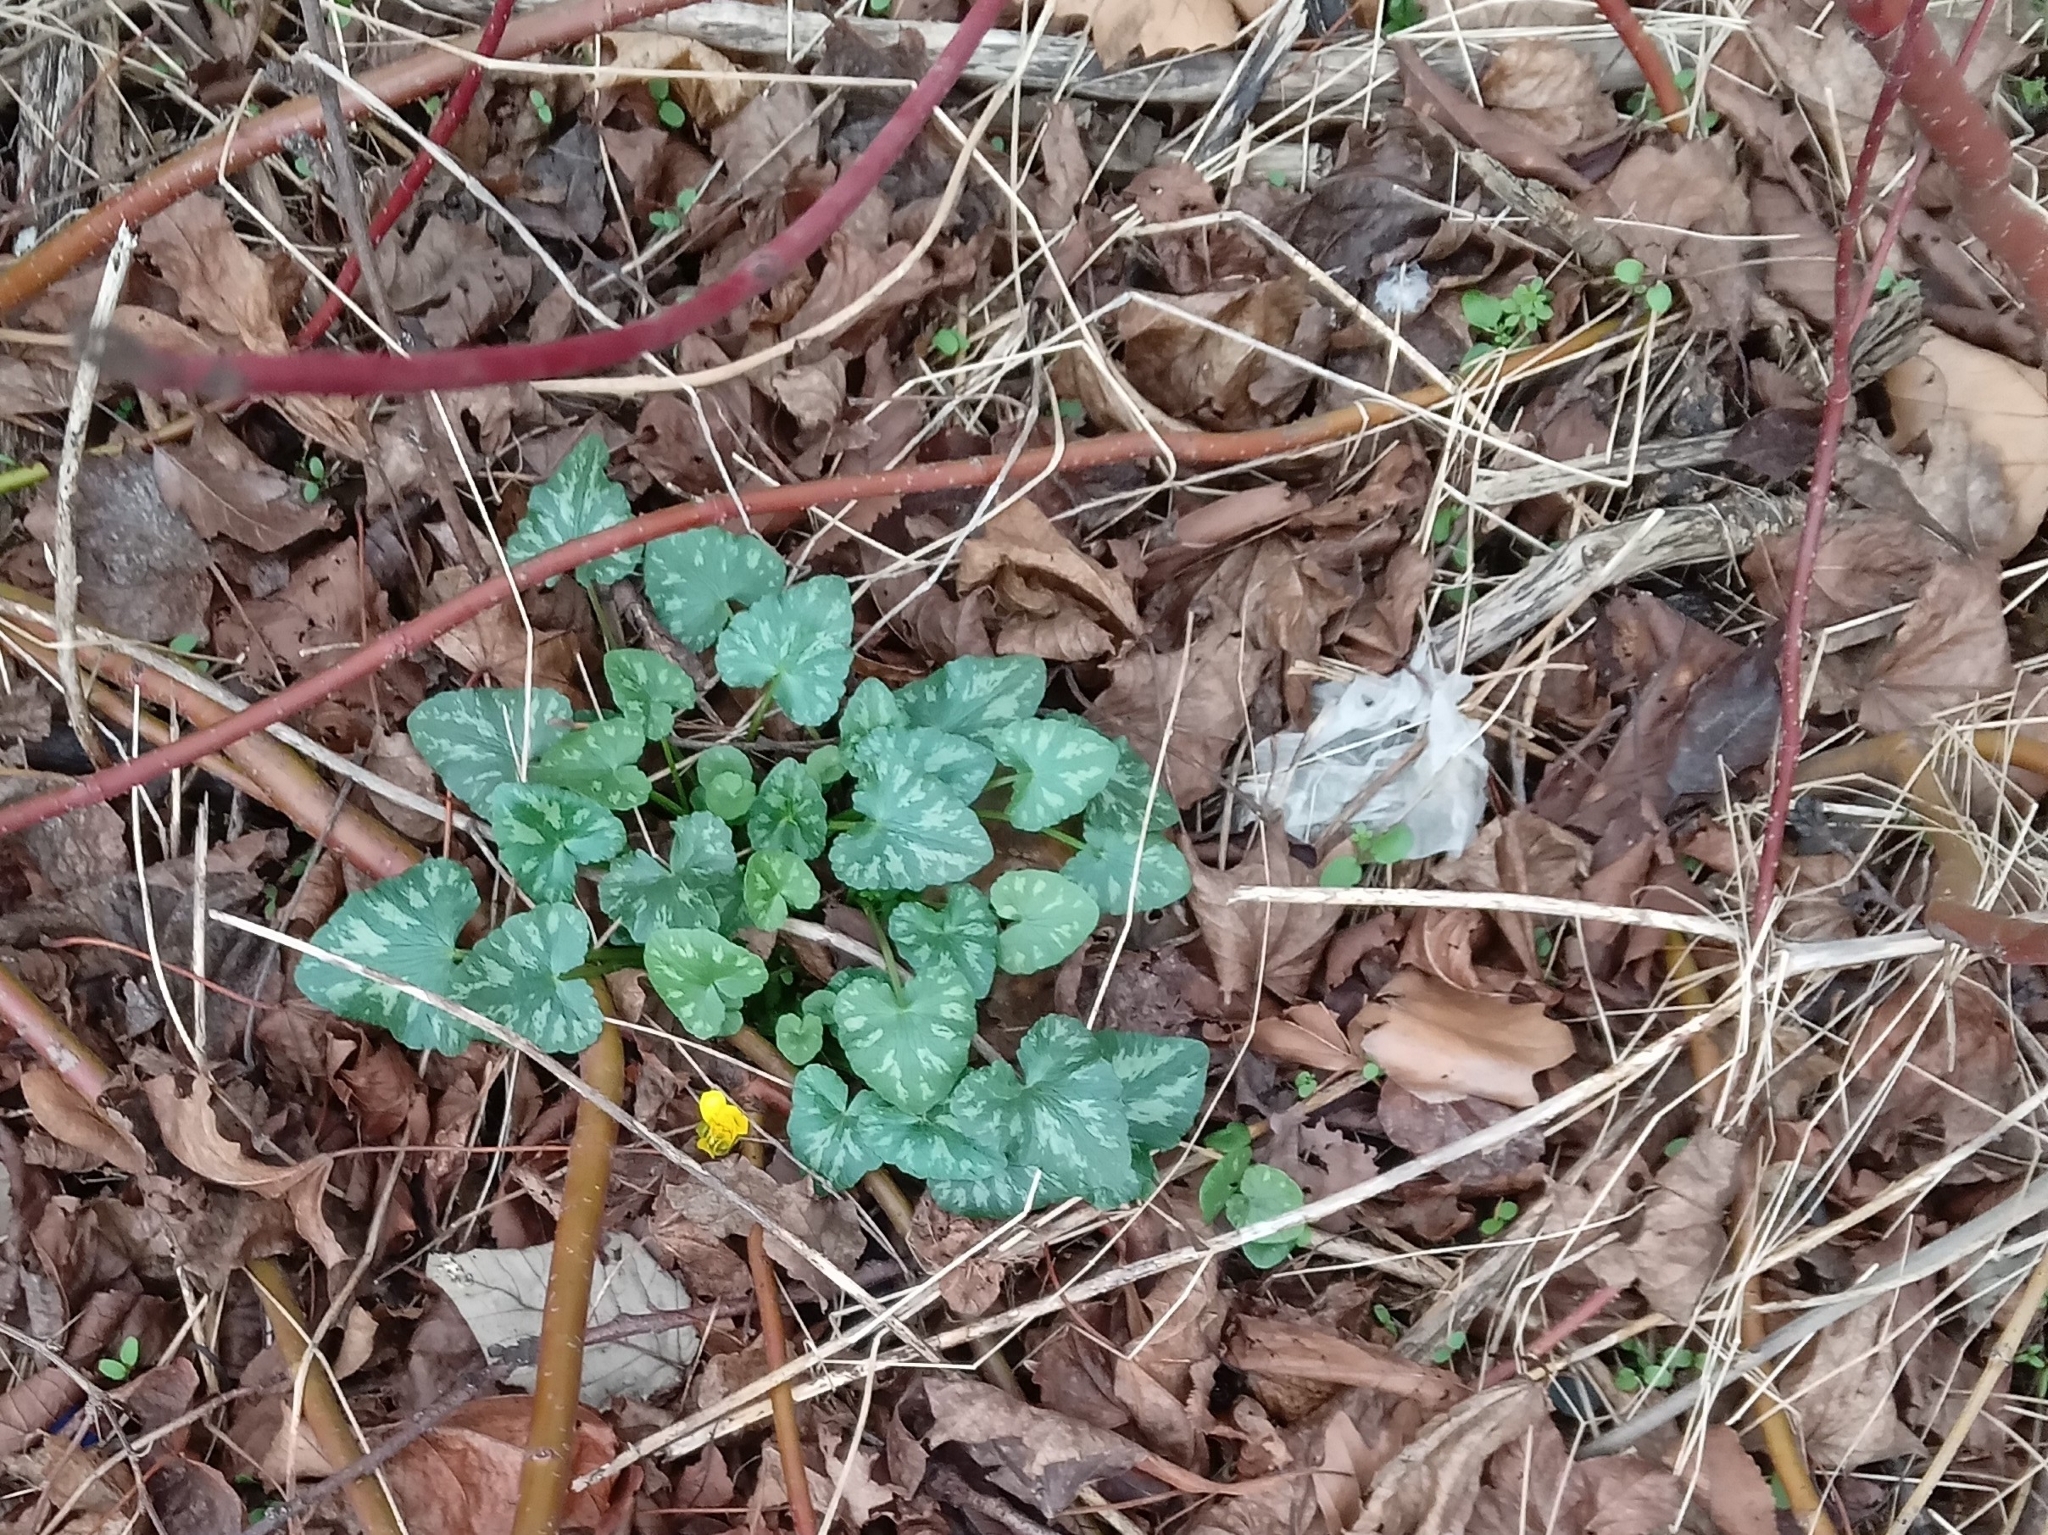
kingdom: Plantae
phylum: Tracheophyta
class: Magnoliopsida
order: Ranunculales
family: Ranunculaceae
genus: Ficaria
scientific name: Ficaria verna
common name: Lesser celandine
